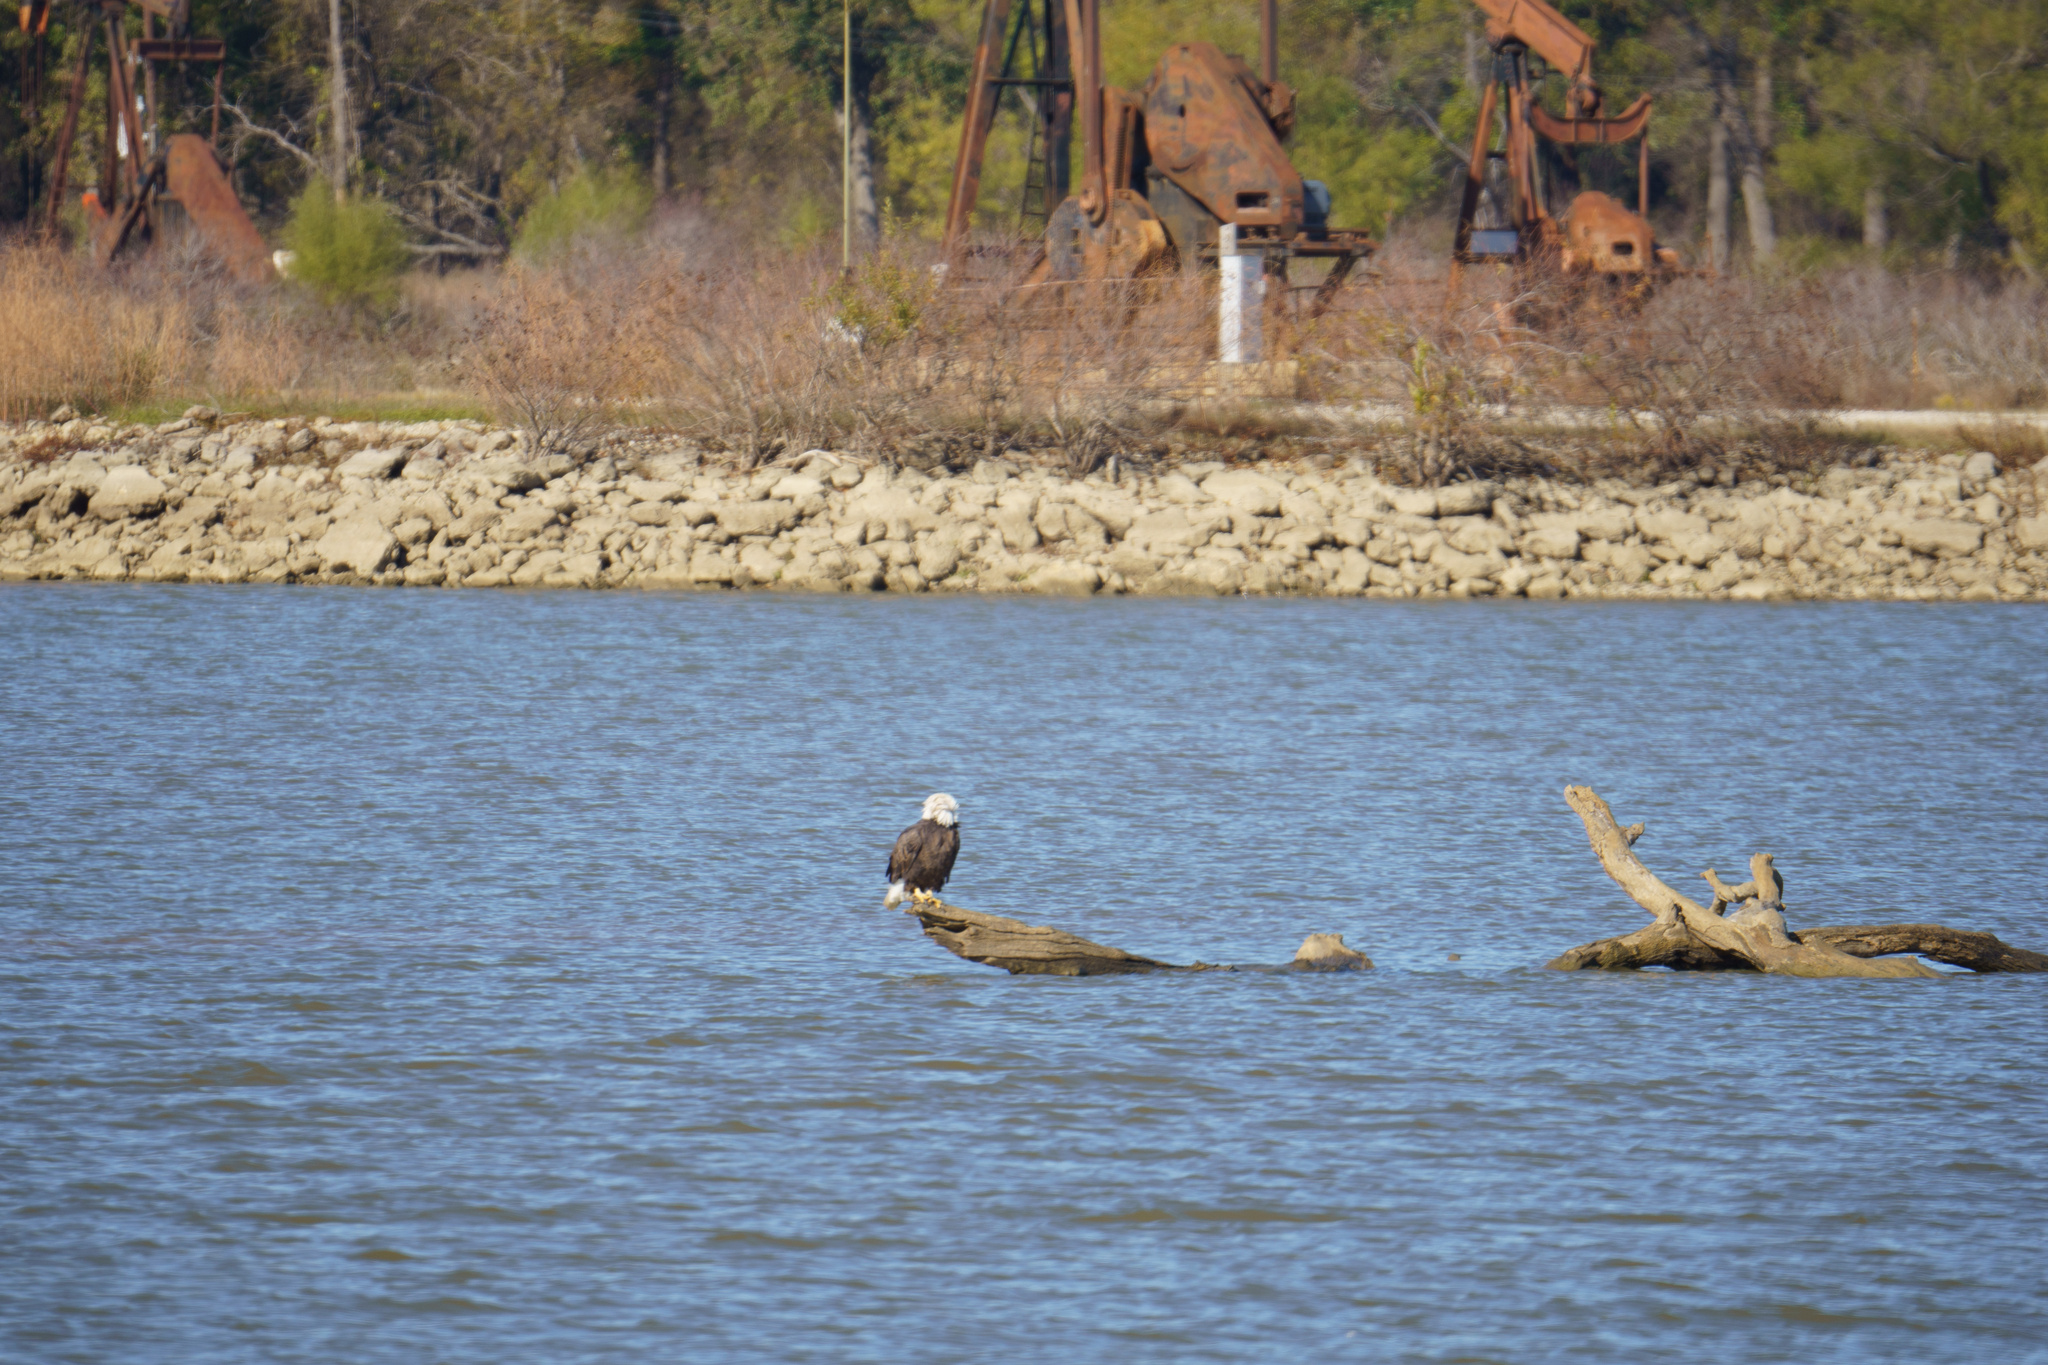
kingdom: Animalia
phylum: Chordata
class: Aves
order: Accipitriformes
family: Accipitridae
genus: Haliaeetus
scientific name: Haliaeetus leucocephalus
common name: Bald eagle
